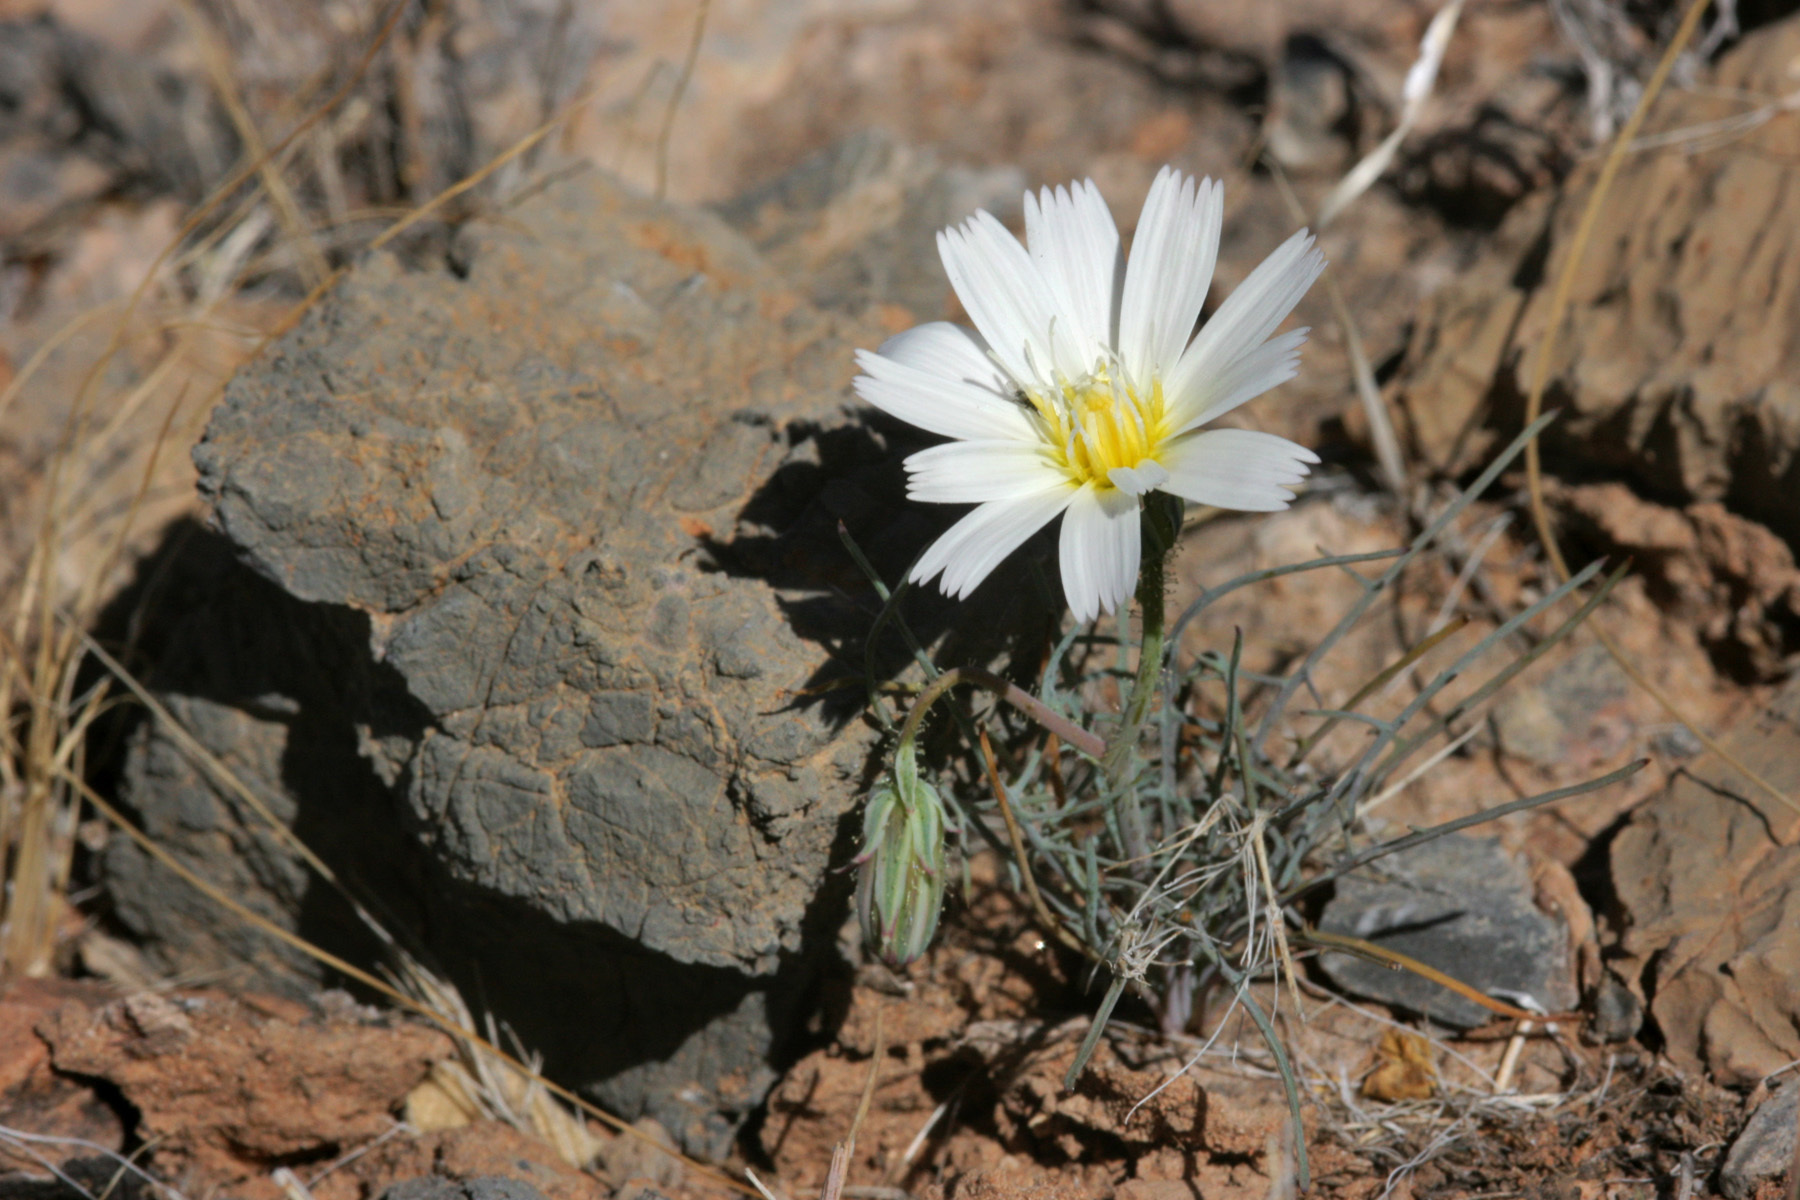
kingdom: Plantae
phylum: Tracheophyta
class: Magnoliopsida
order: Asterales
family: Asteraceae
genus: Calycoseris
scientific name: Calycoseris wrightii
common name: White tackstem
